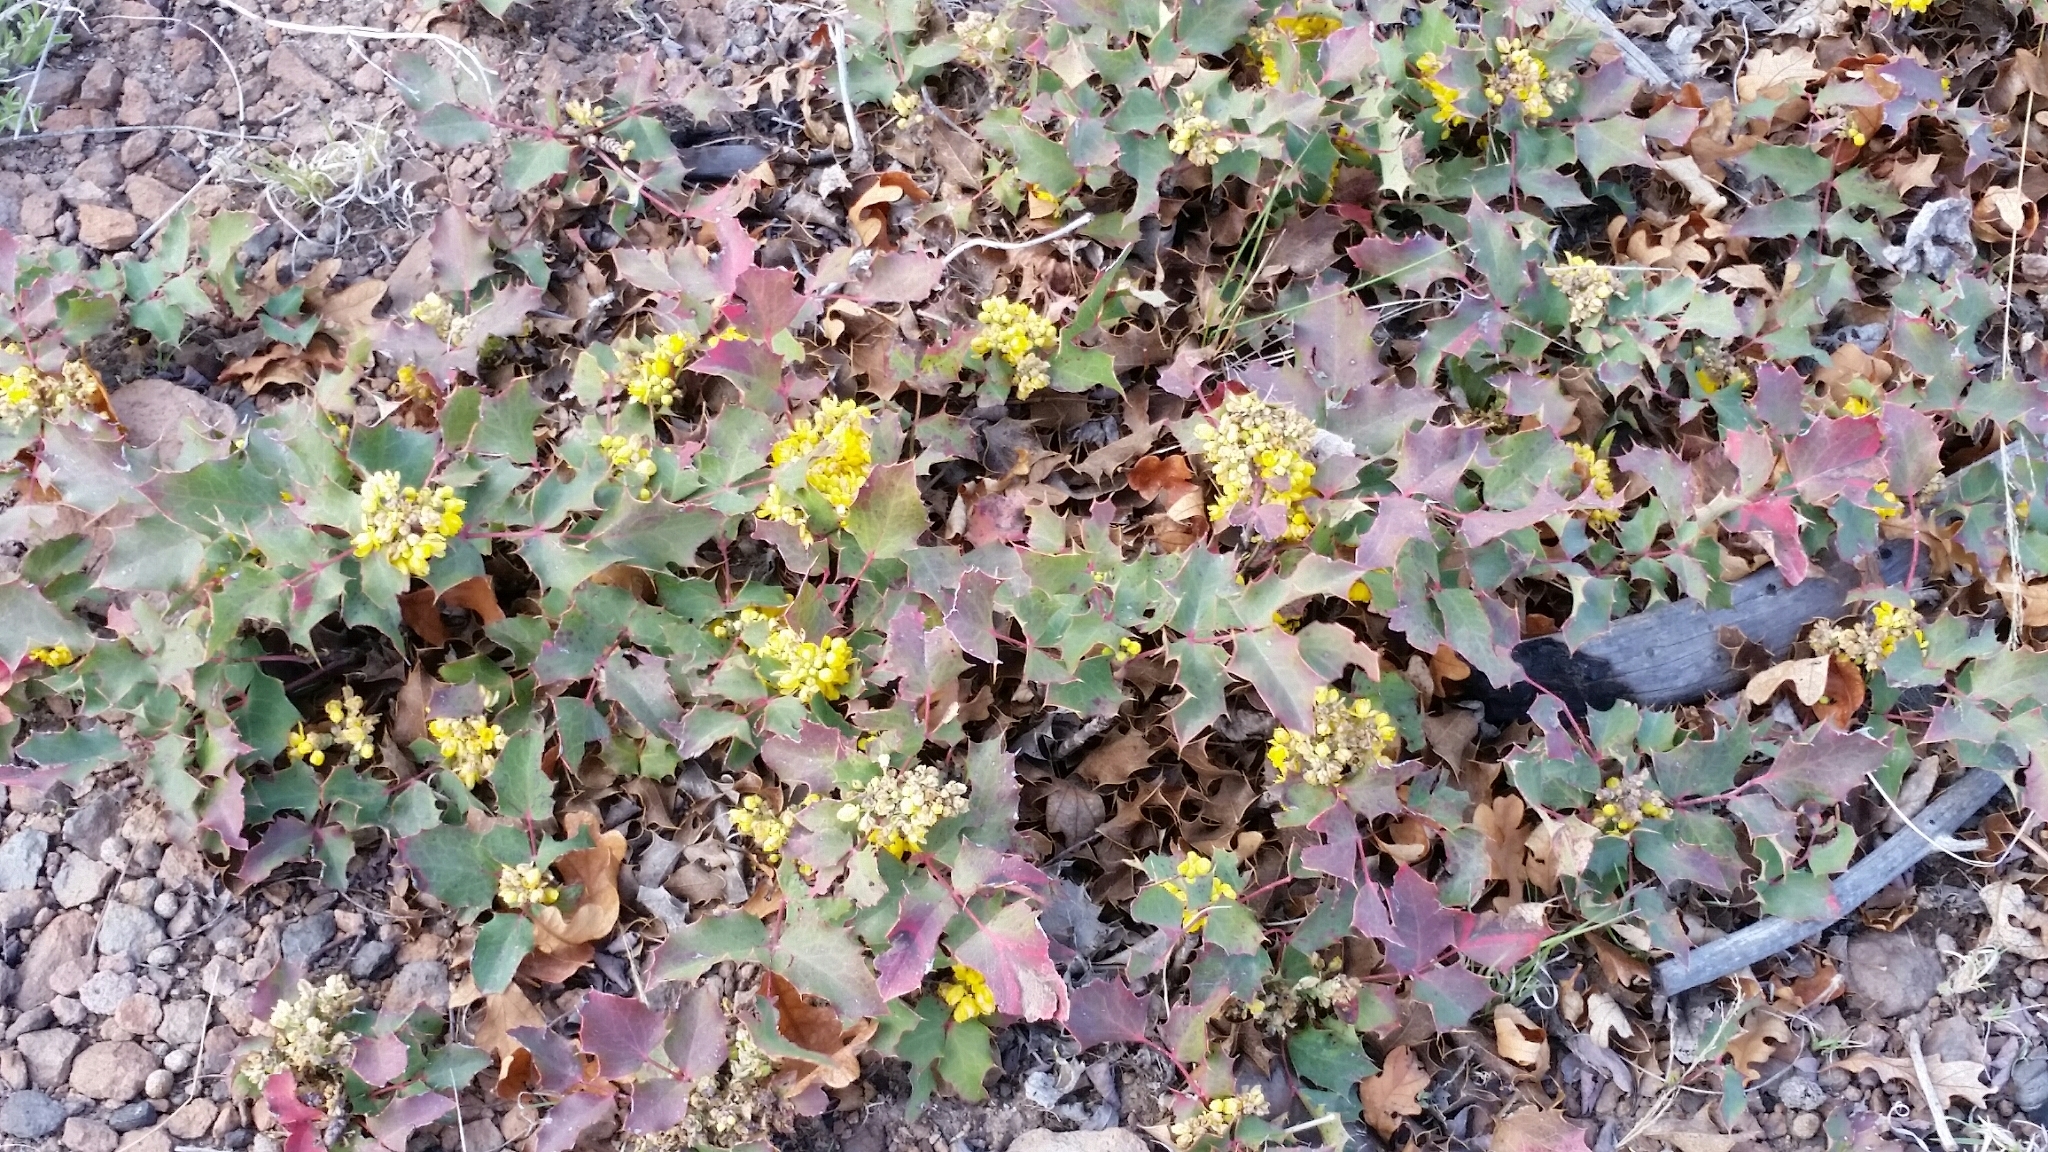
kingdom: Plantae
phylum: Tracheophyta
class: Magnoliopsida
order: Ranunculales
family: Berberidaceae
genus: Mahonia
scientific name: Mahonia repens
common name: Creeping oregon-grape
